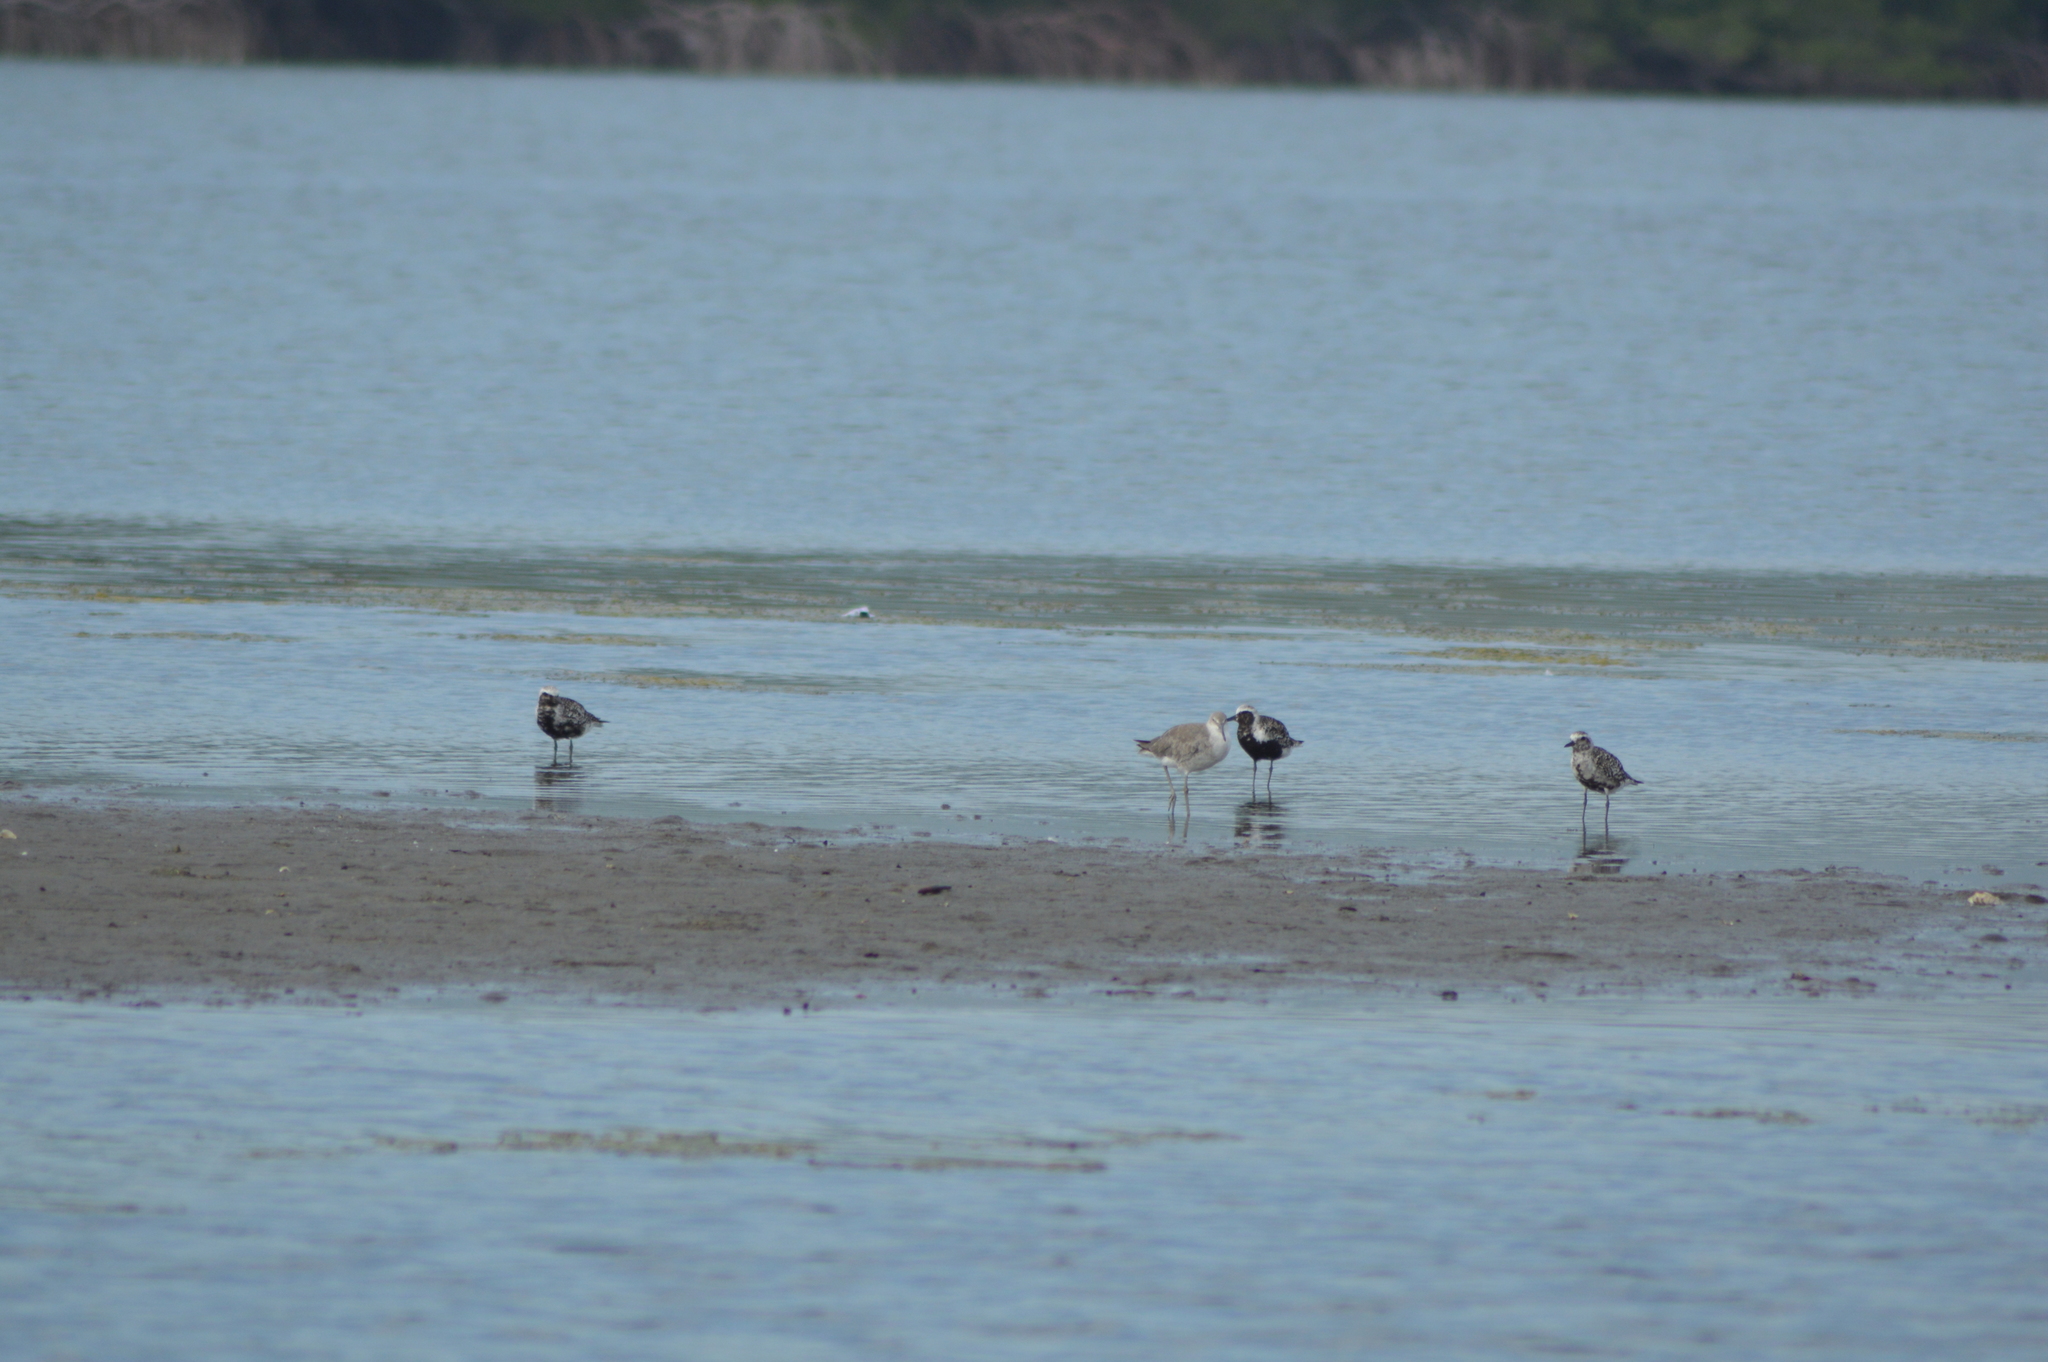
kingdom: Animalia
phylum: Chordata
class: Aves
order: Charadriiformes
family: Charadriidae
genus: Pluvialis
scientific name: Pluvialis squatarola
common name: Grey plover
